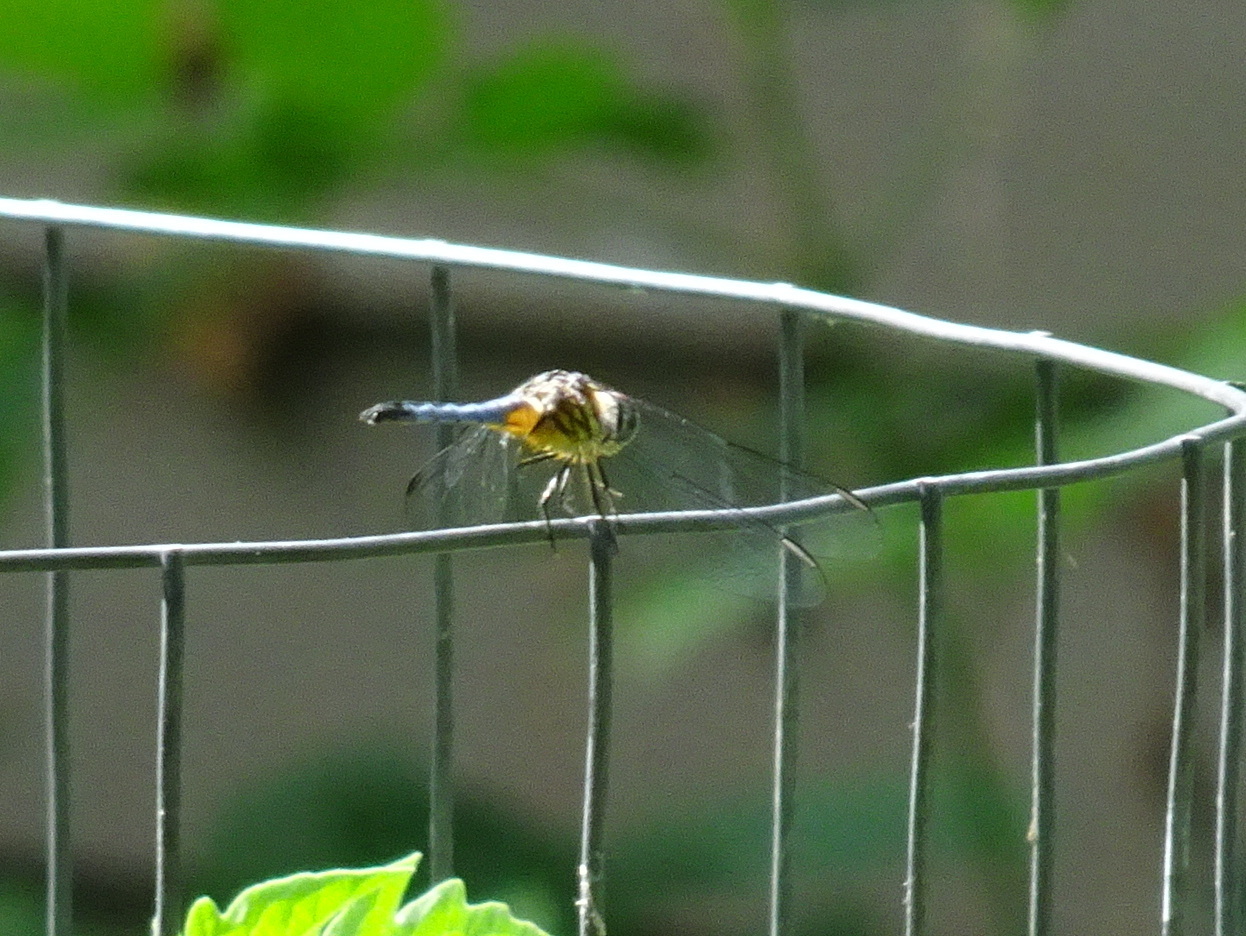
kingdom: Animalia
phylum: Arthropoda
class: Insecta
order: Odonata
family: Libellulidae
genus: Pachydiplax
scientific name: Pachydiplax longipennis
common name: Blue dasher
